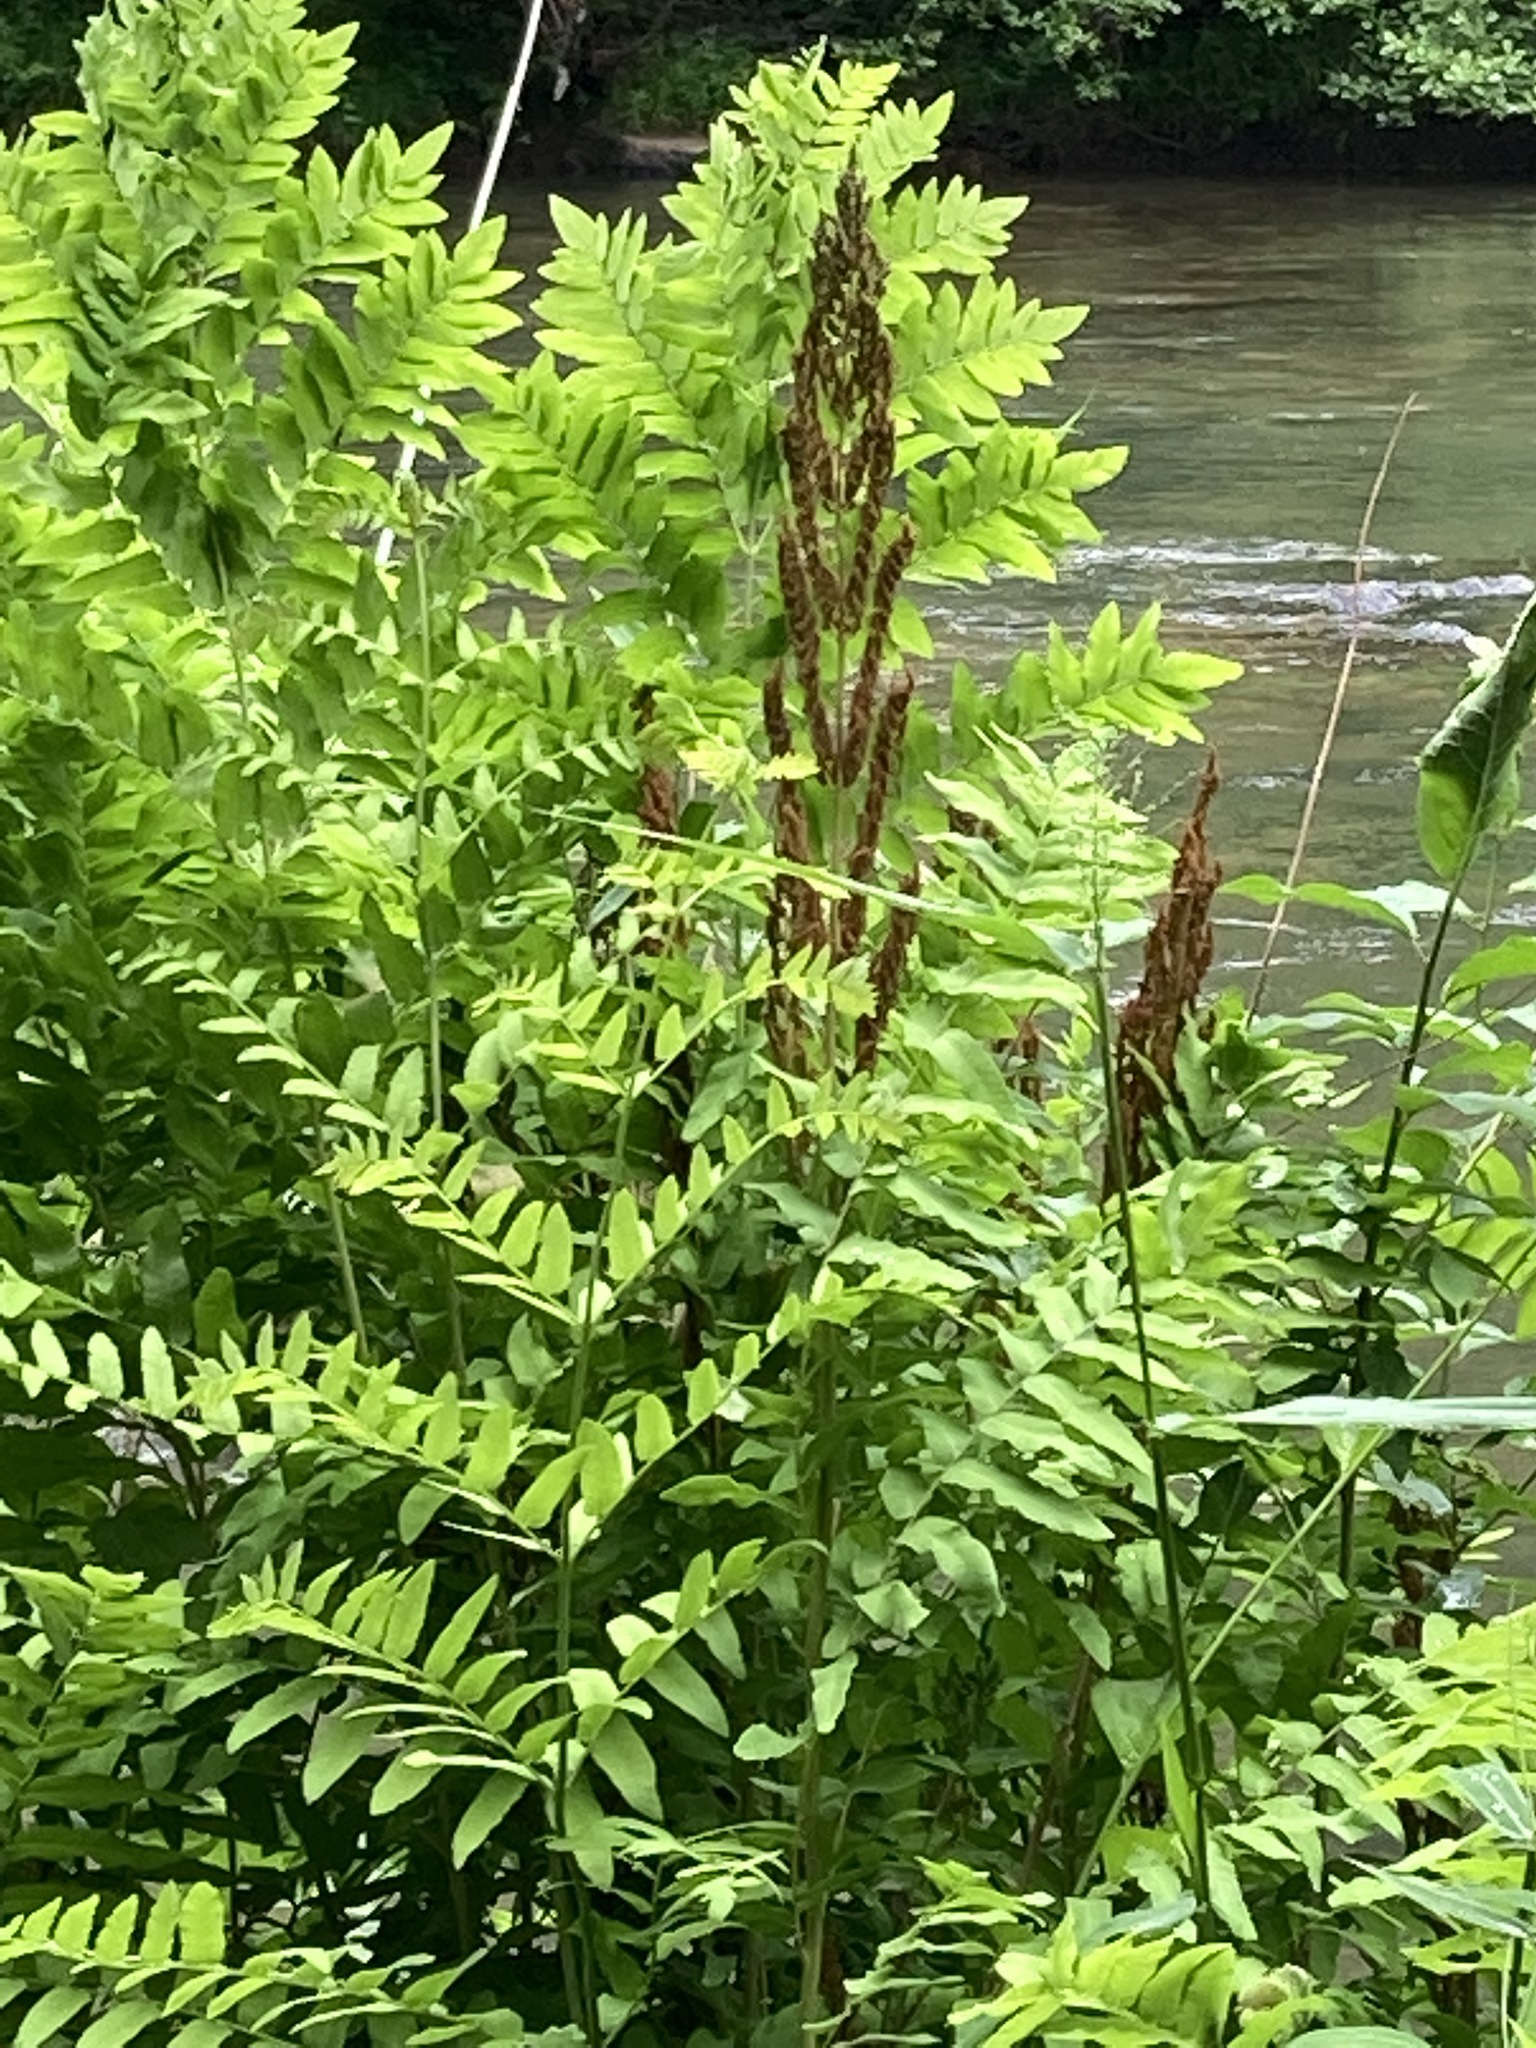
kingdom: Plantae
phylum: Tracheophyta
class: Polypodiopsida
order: Osmundales
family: Osmundaceae
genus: Claytosmunda
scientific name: Claytosmunda claytoniana
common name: Clayton's fern
